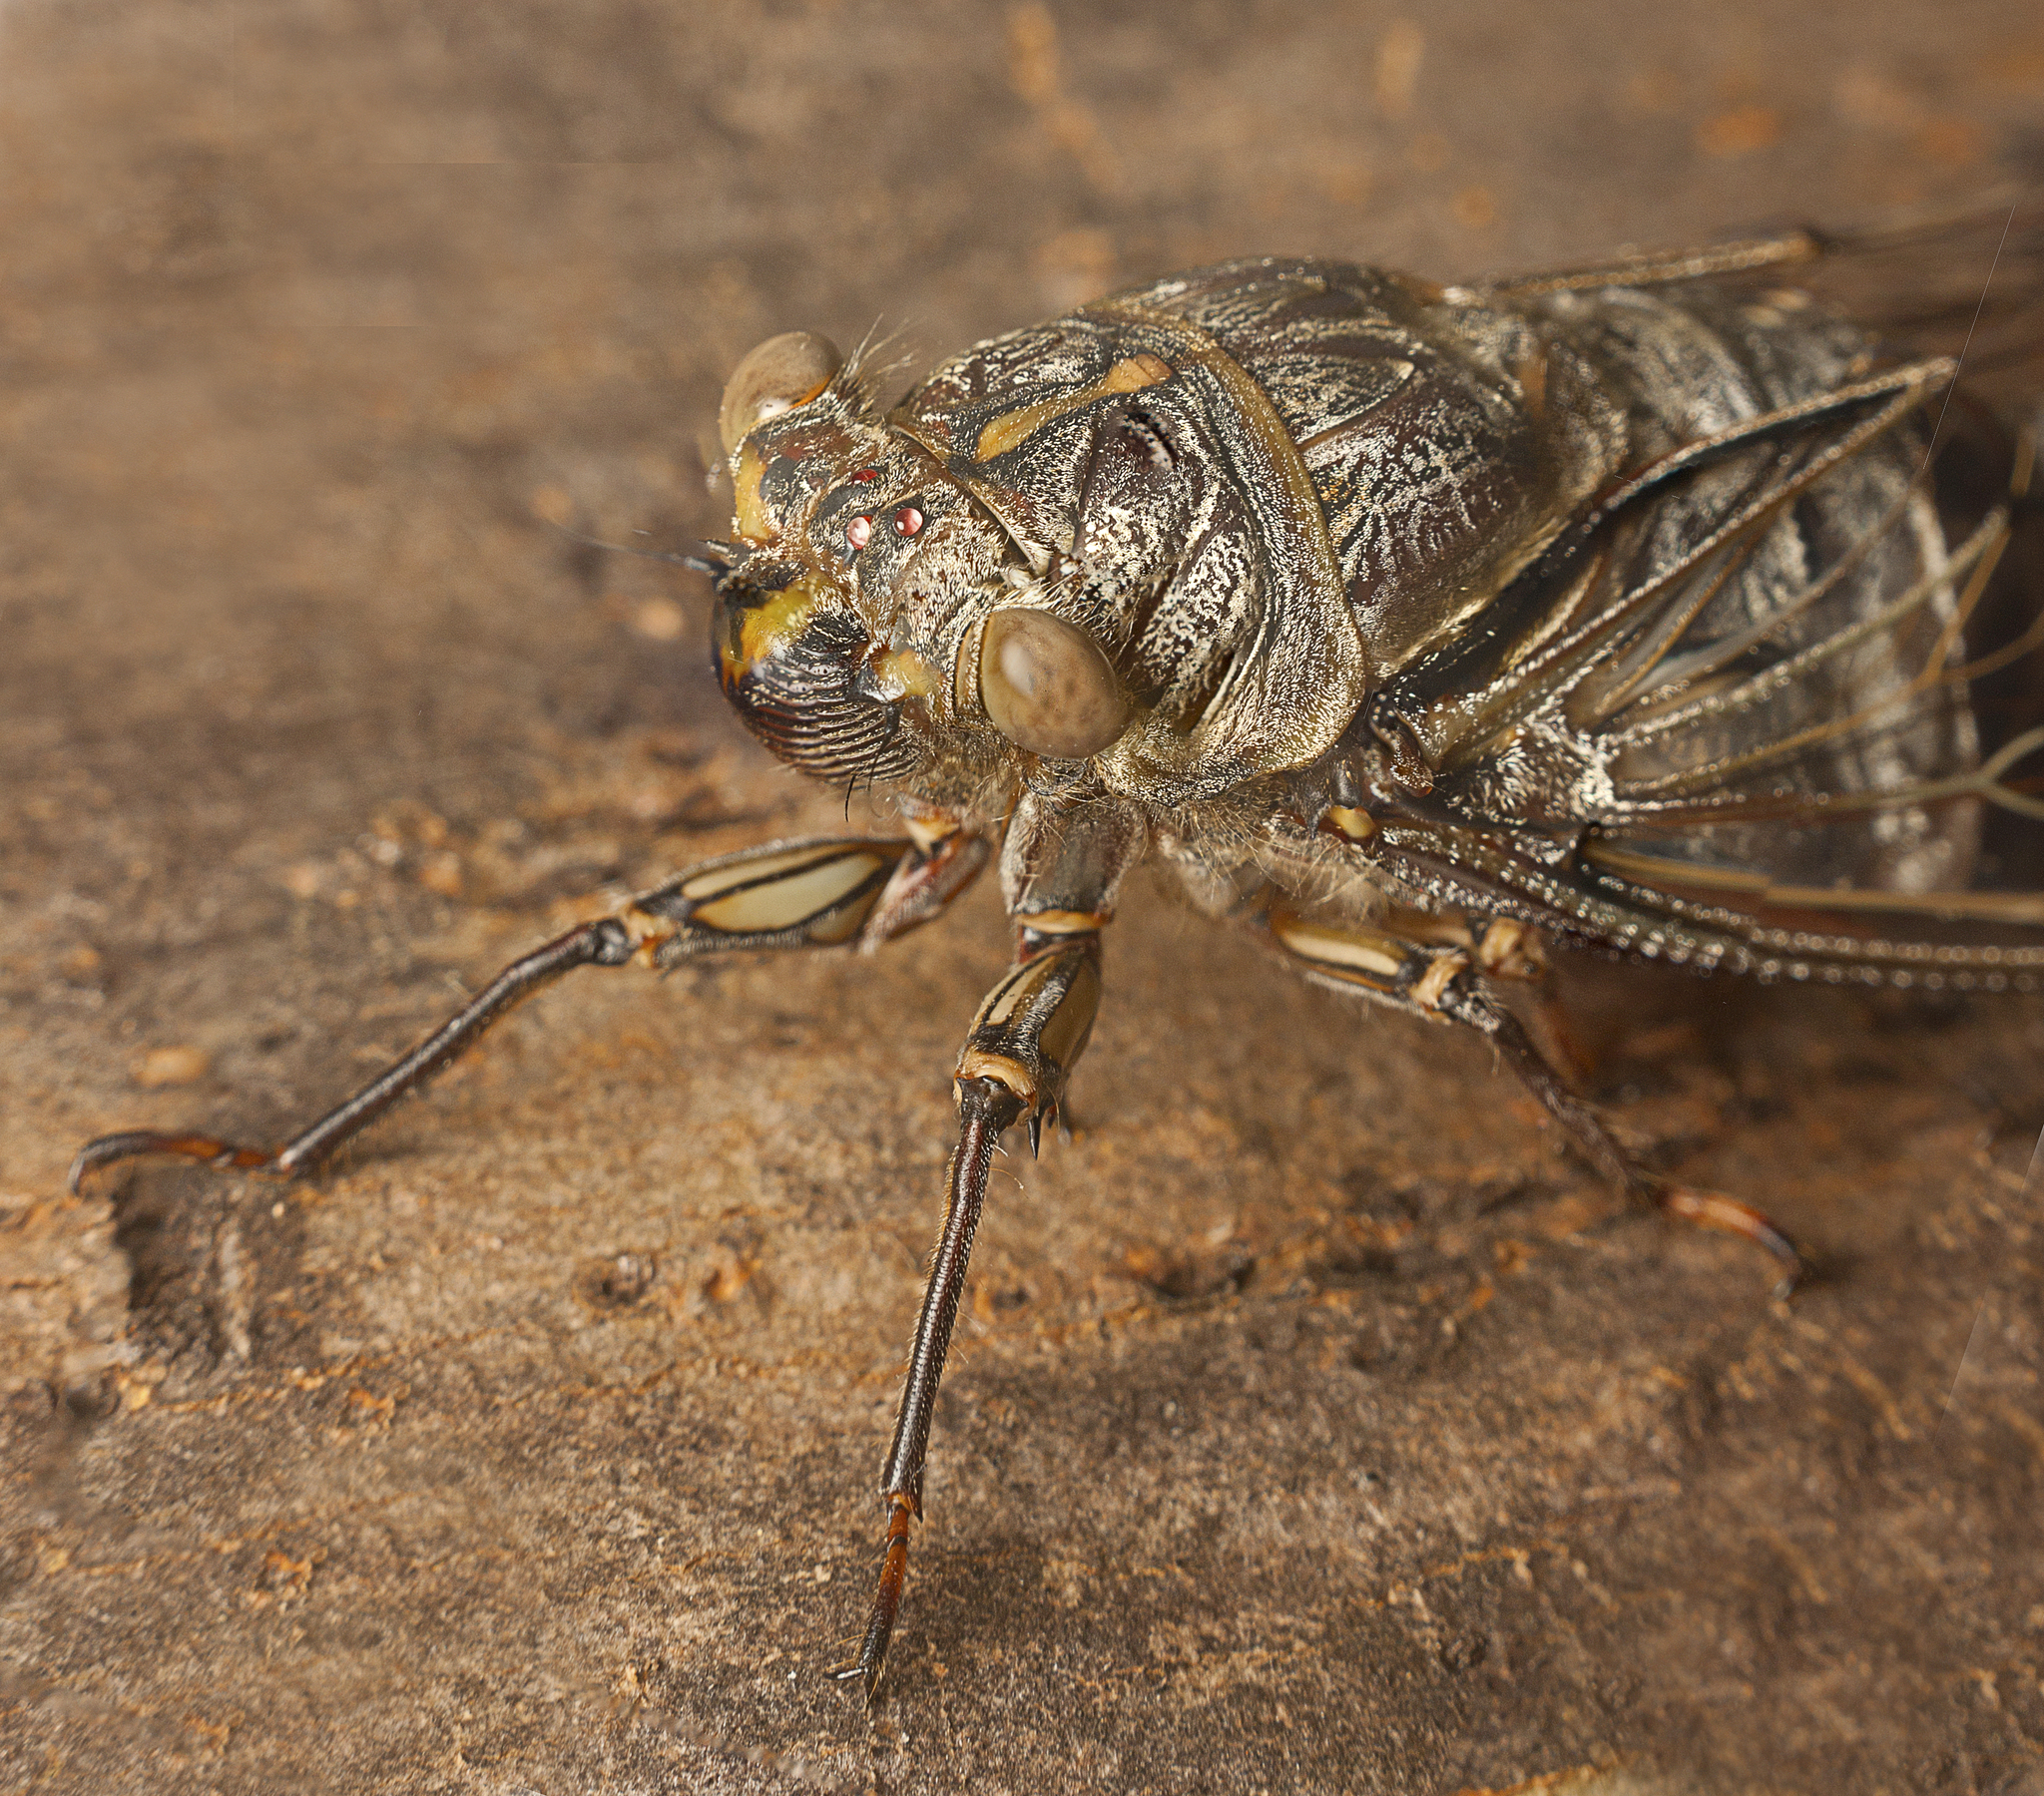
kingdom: Animalia
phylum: Arthropoda
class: Insecta
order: Hemiptera
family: Cicadidae
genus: Henicopsaltria
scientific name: Henicopsaltria eydouxii
